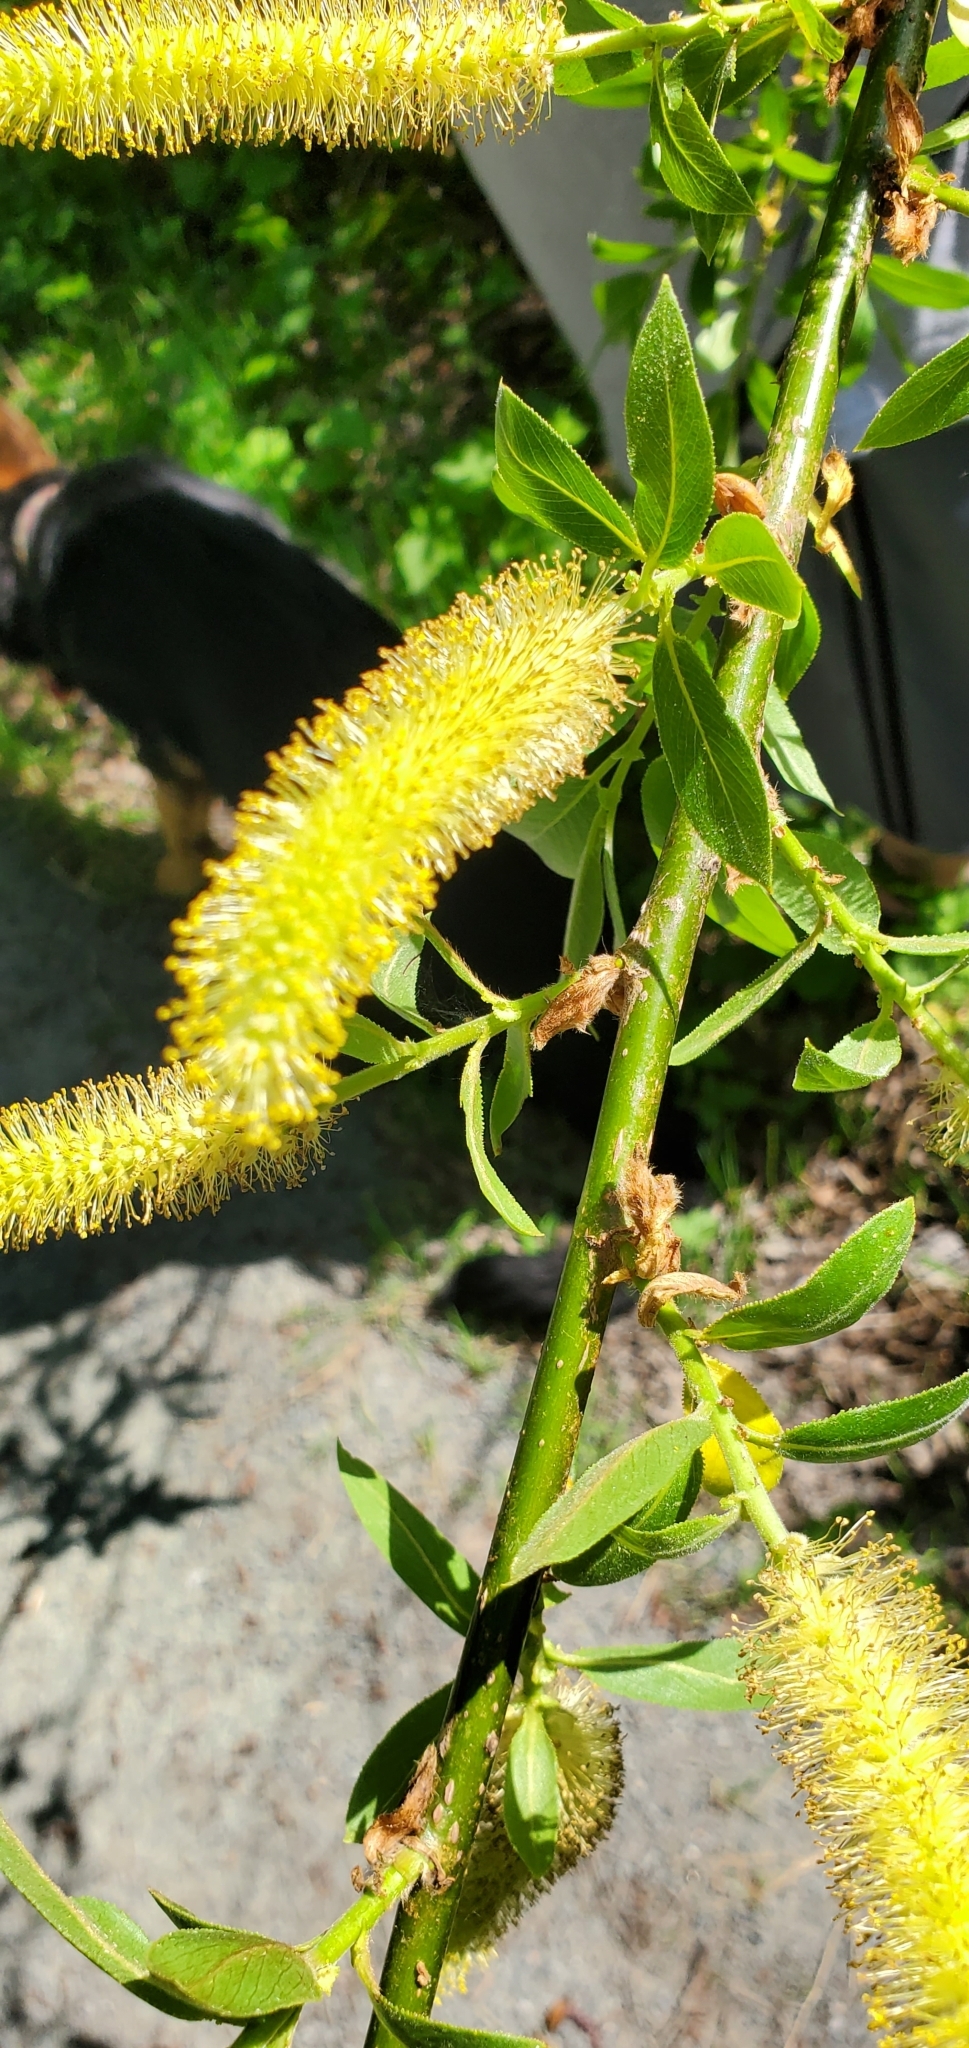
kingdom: Plantae
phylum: Tracheophyta
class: Magnoliopsida
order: Malpighiales
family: Salicaceae
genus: Salix
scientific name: Salix lucida
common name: Shining willow
